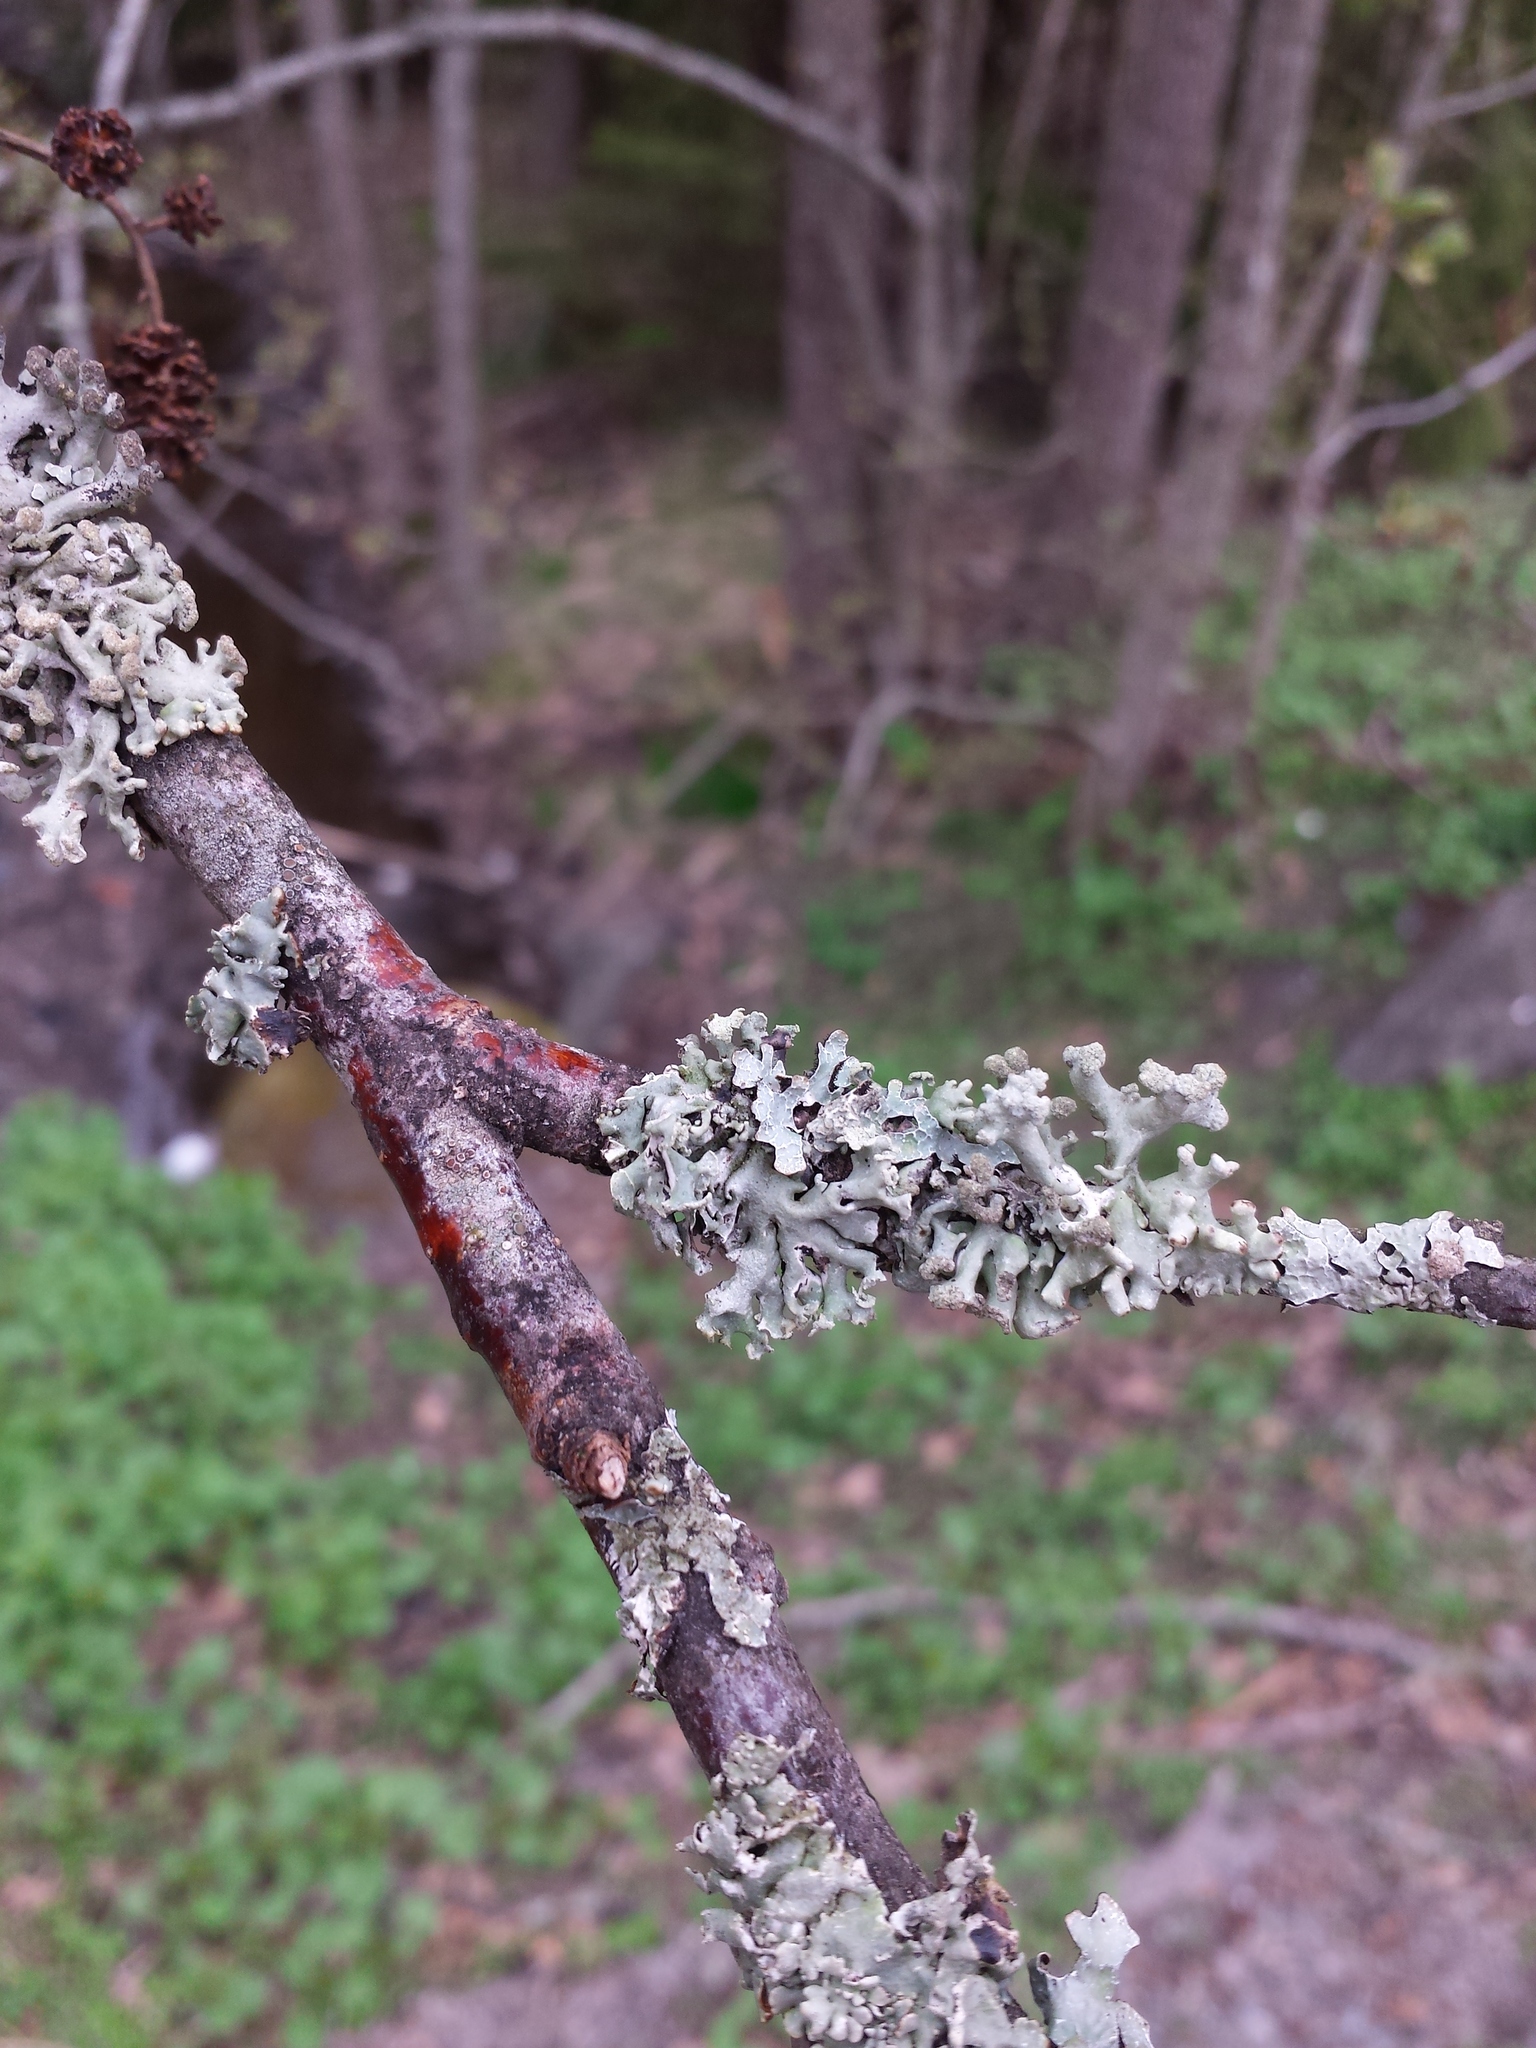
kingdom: Fungi
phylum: Ascomycota
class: Lecanoromycetes
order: Lecanorales
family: Parmeliaceae
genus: Hypogymnia
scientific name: Hypogymnia tubulosa
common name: Powder-headed tube lichen
